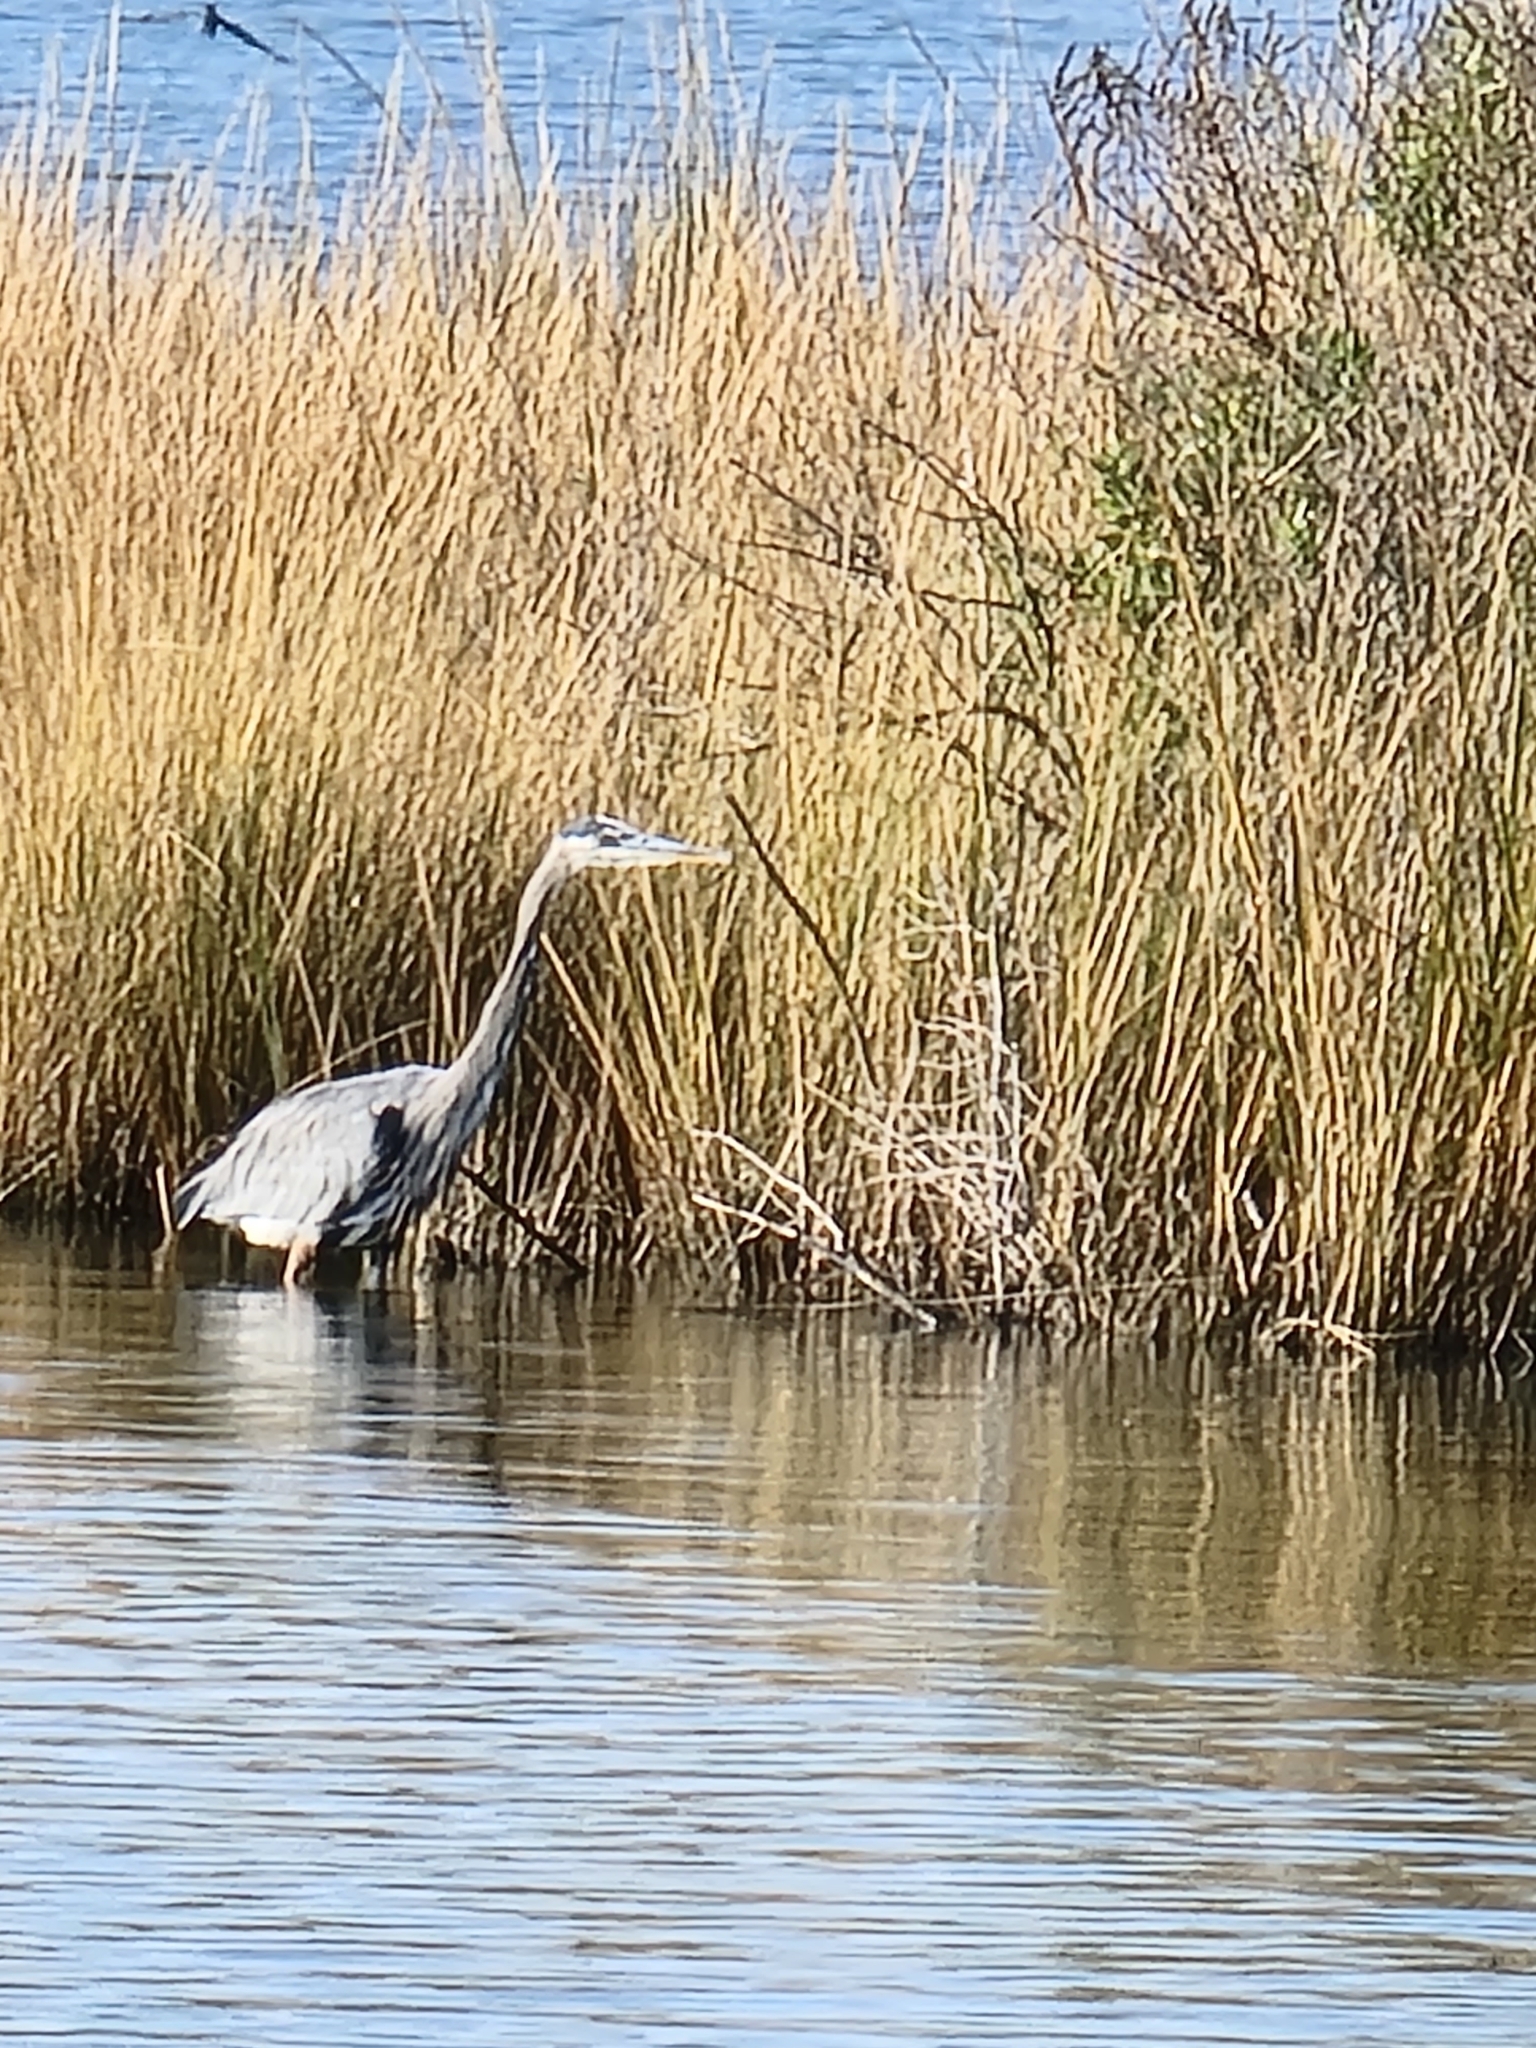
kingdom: Animalia
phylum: Chordata
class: Aves
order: Pelecaniformes
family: Ardeidae
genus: Ardea
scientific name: Ardea herodias
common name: Great blue heron
